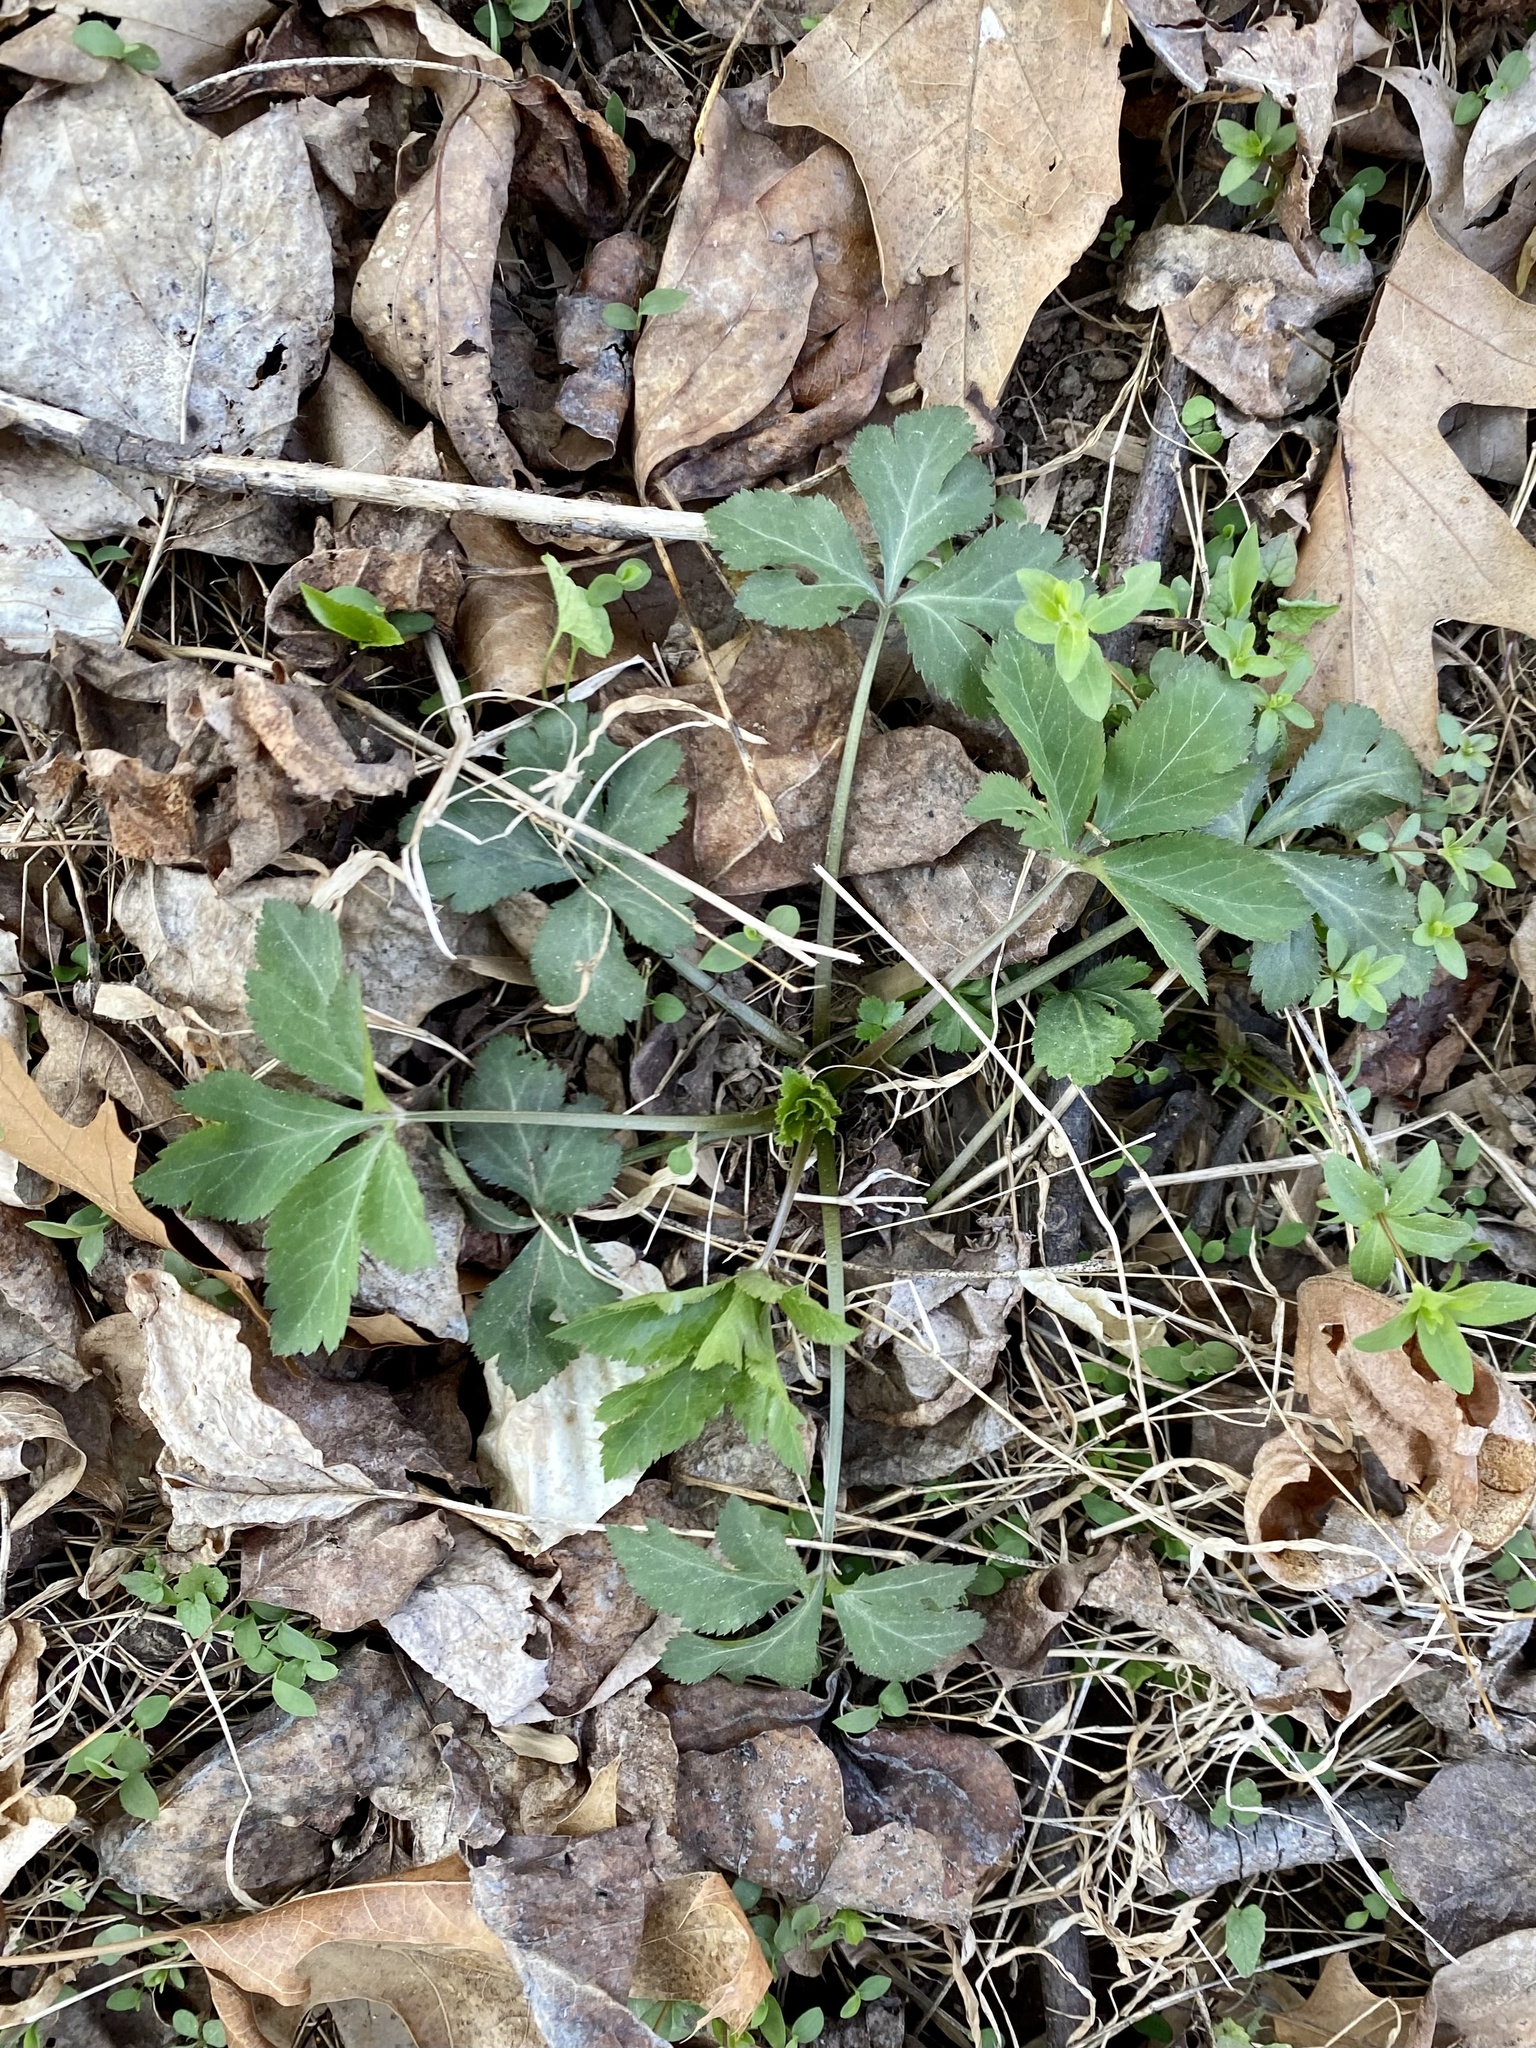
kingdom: Plantae
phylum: Tracheophyta
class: Magnoliopsida
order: Apiales
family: Apiaceae
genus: Sanicula
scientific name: Sanicula canadensis
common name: Canada sanicle
